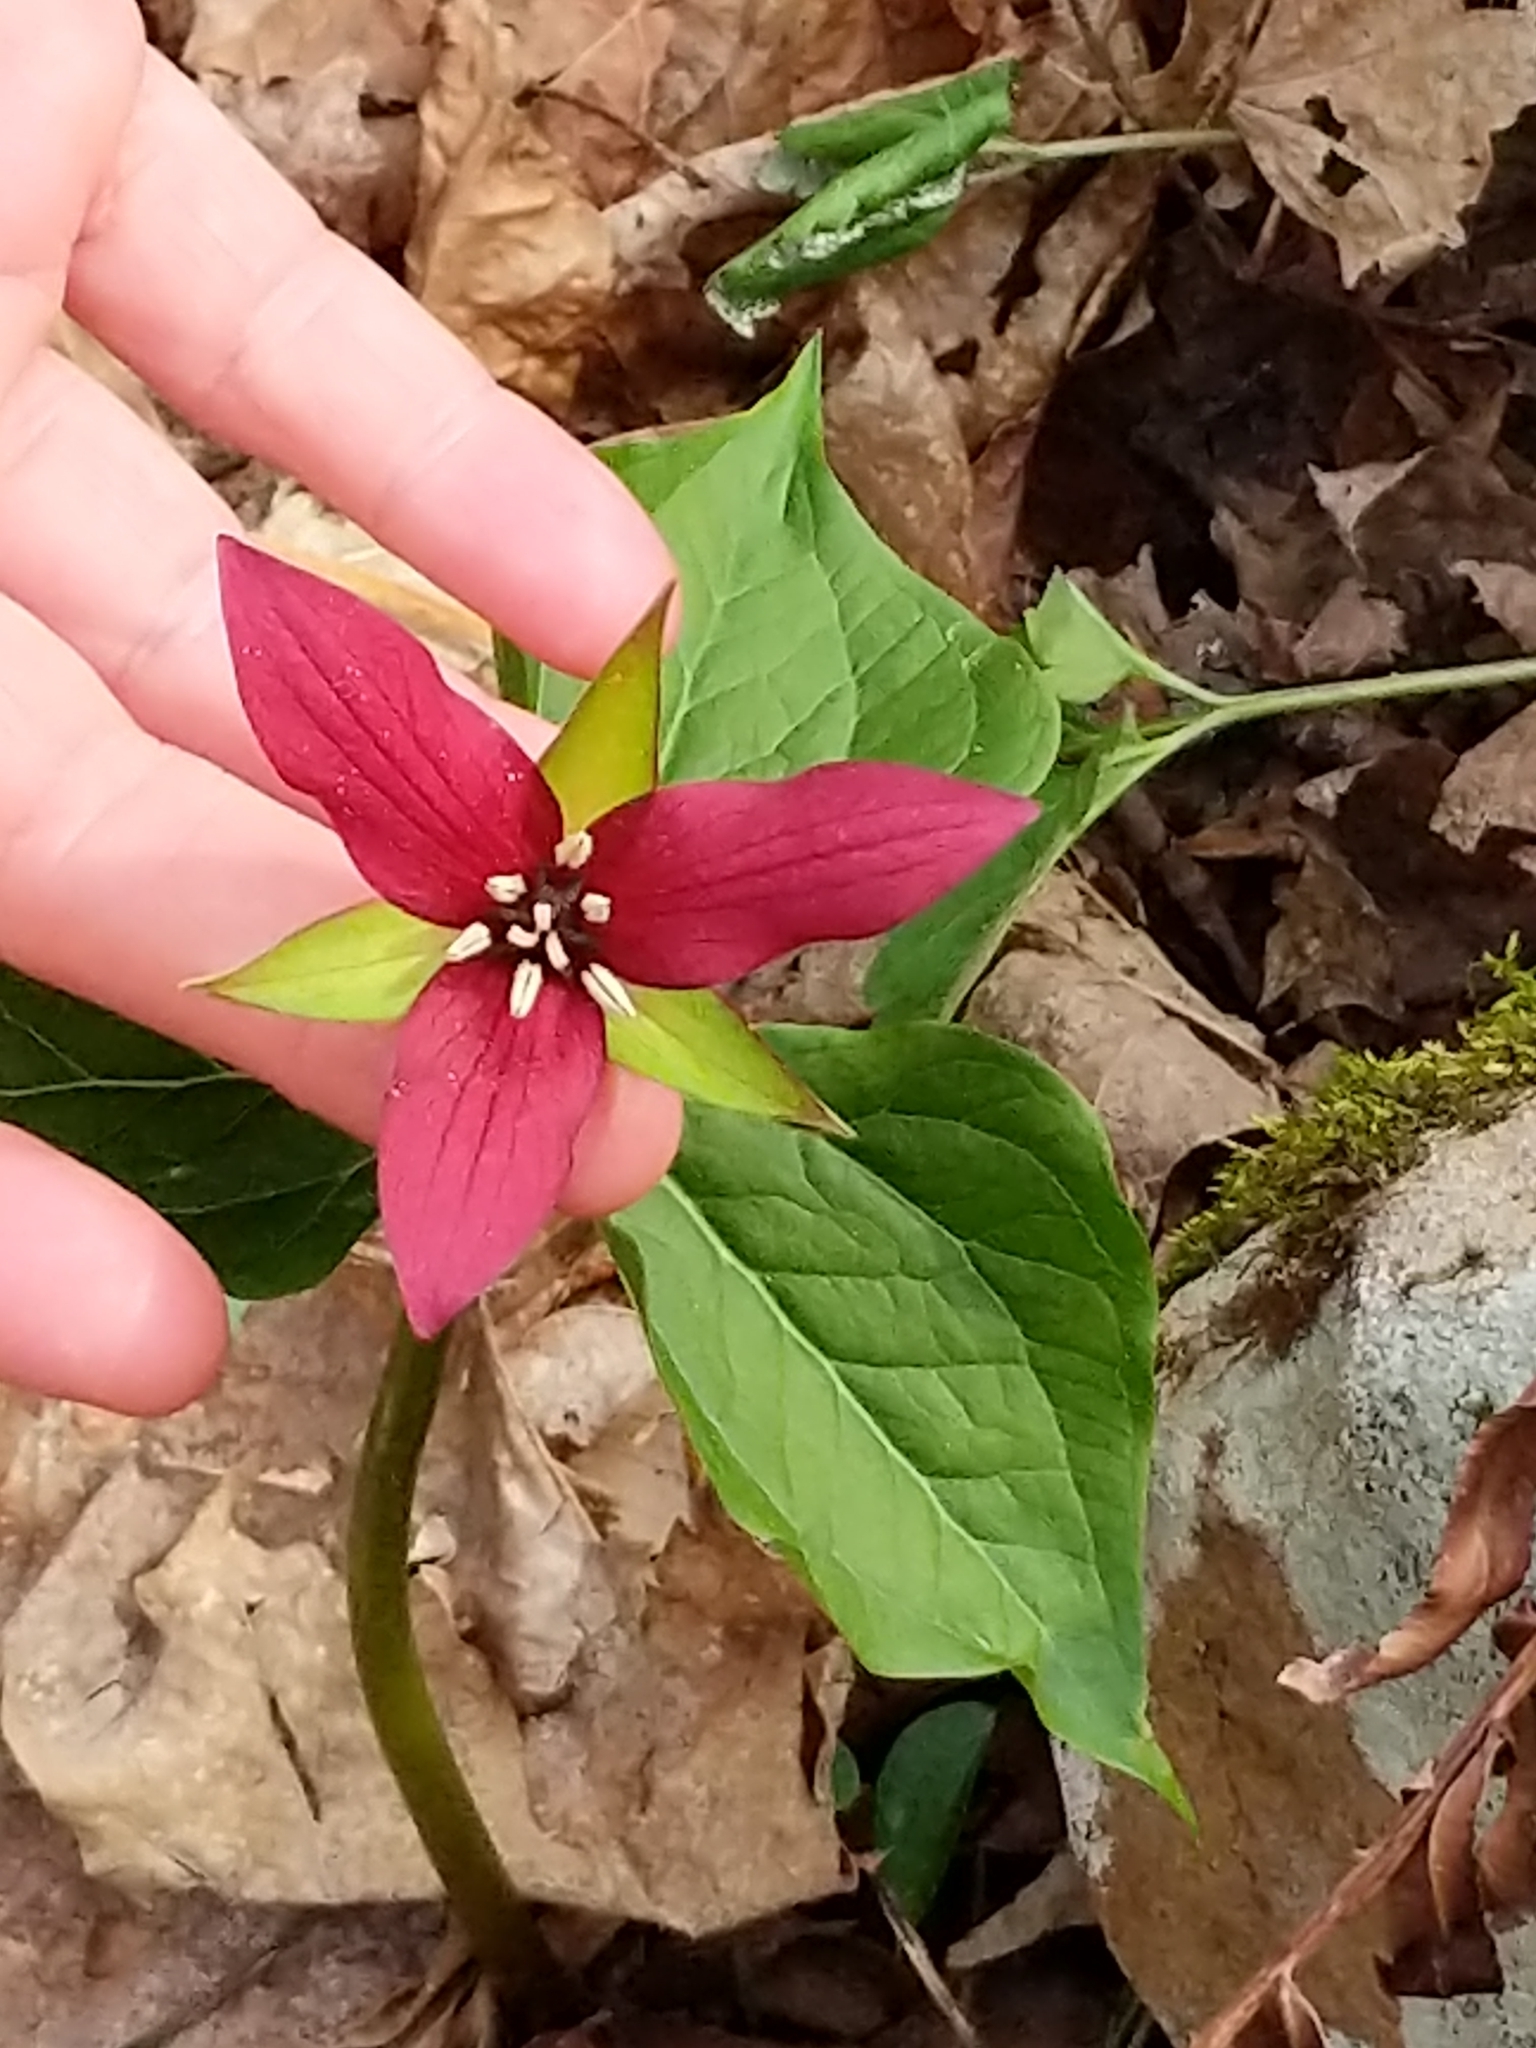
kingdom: Plantae
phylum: Tracheophyta
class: Liliopsida
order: Liliales
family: Melanthiaceae
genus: Trillium
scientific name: Trillium erectum
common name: Purple trillium
